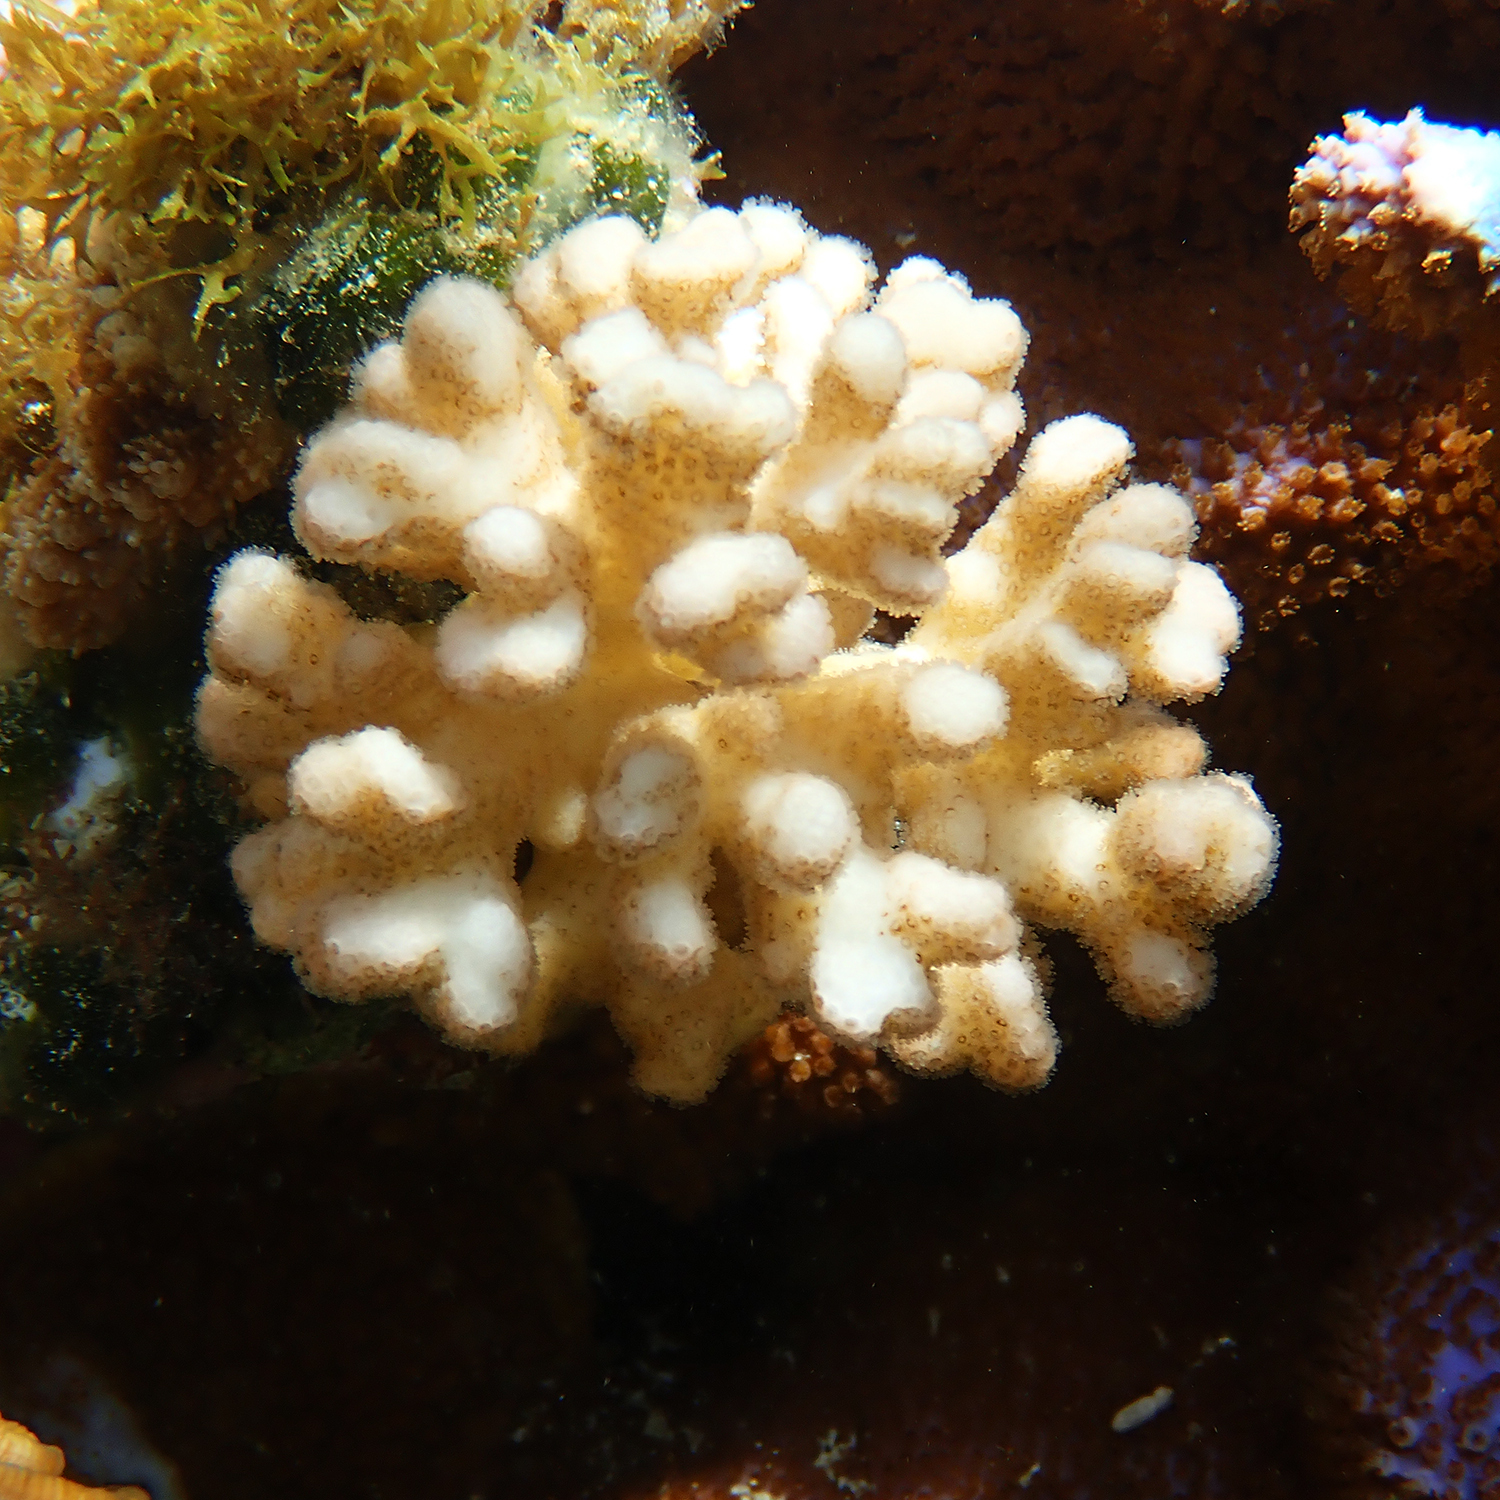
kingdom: Animalia
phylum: Cnidaria
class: Anthozoa
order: Scleractinia
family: Pocilloporidae
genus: Pocillopora
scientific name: Pocillopora damicornis
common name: Cauliflower coral
